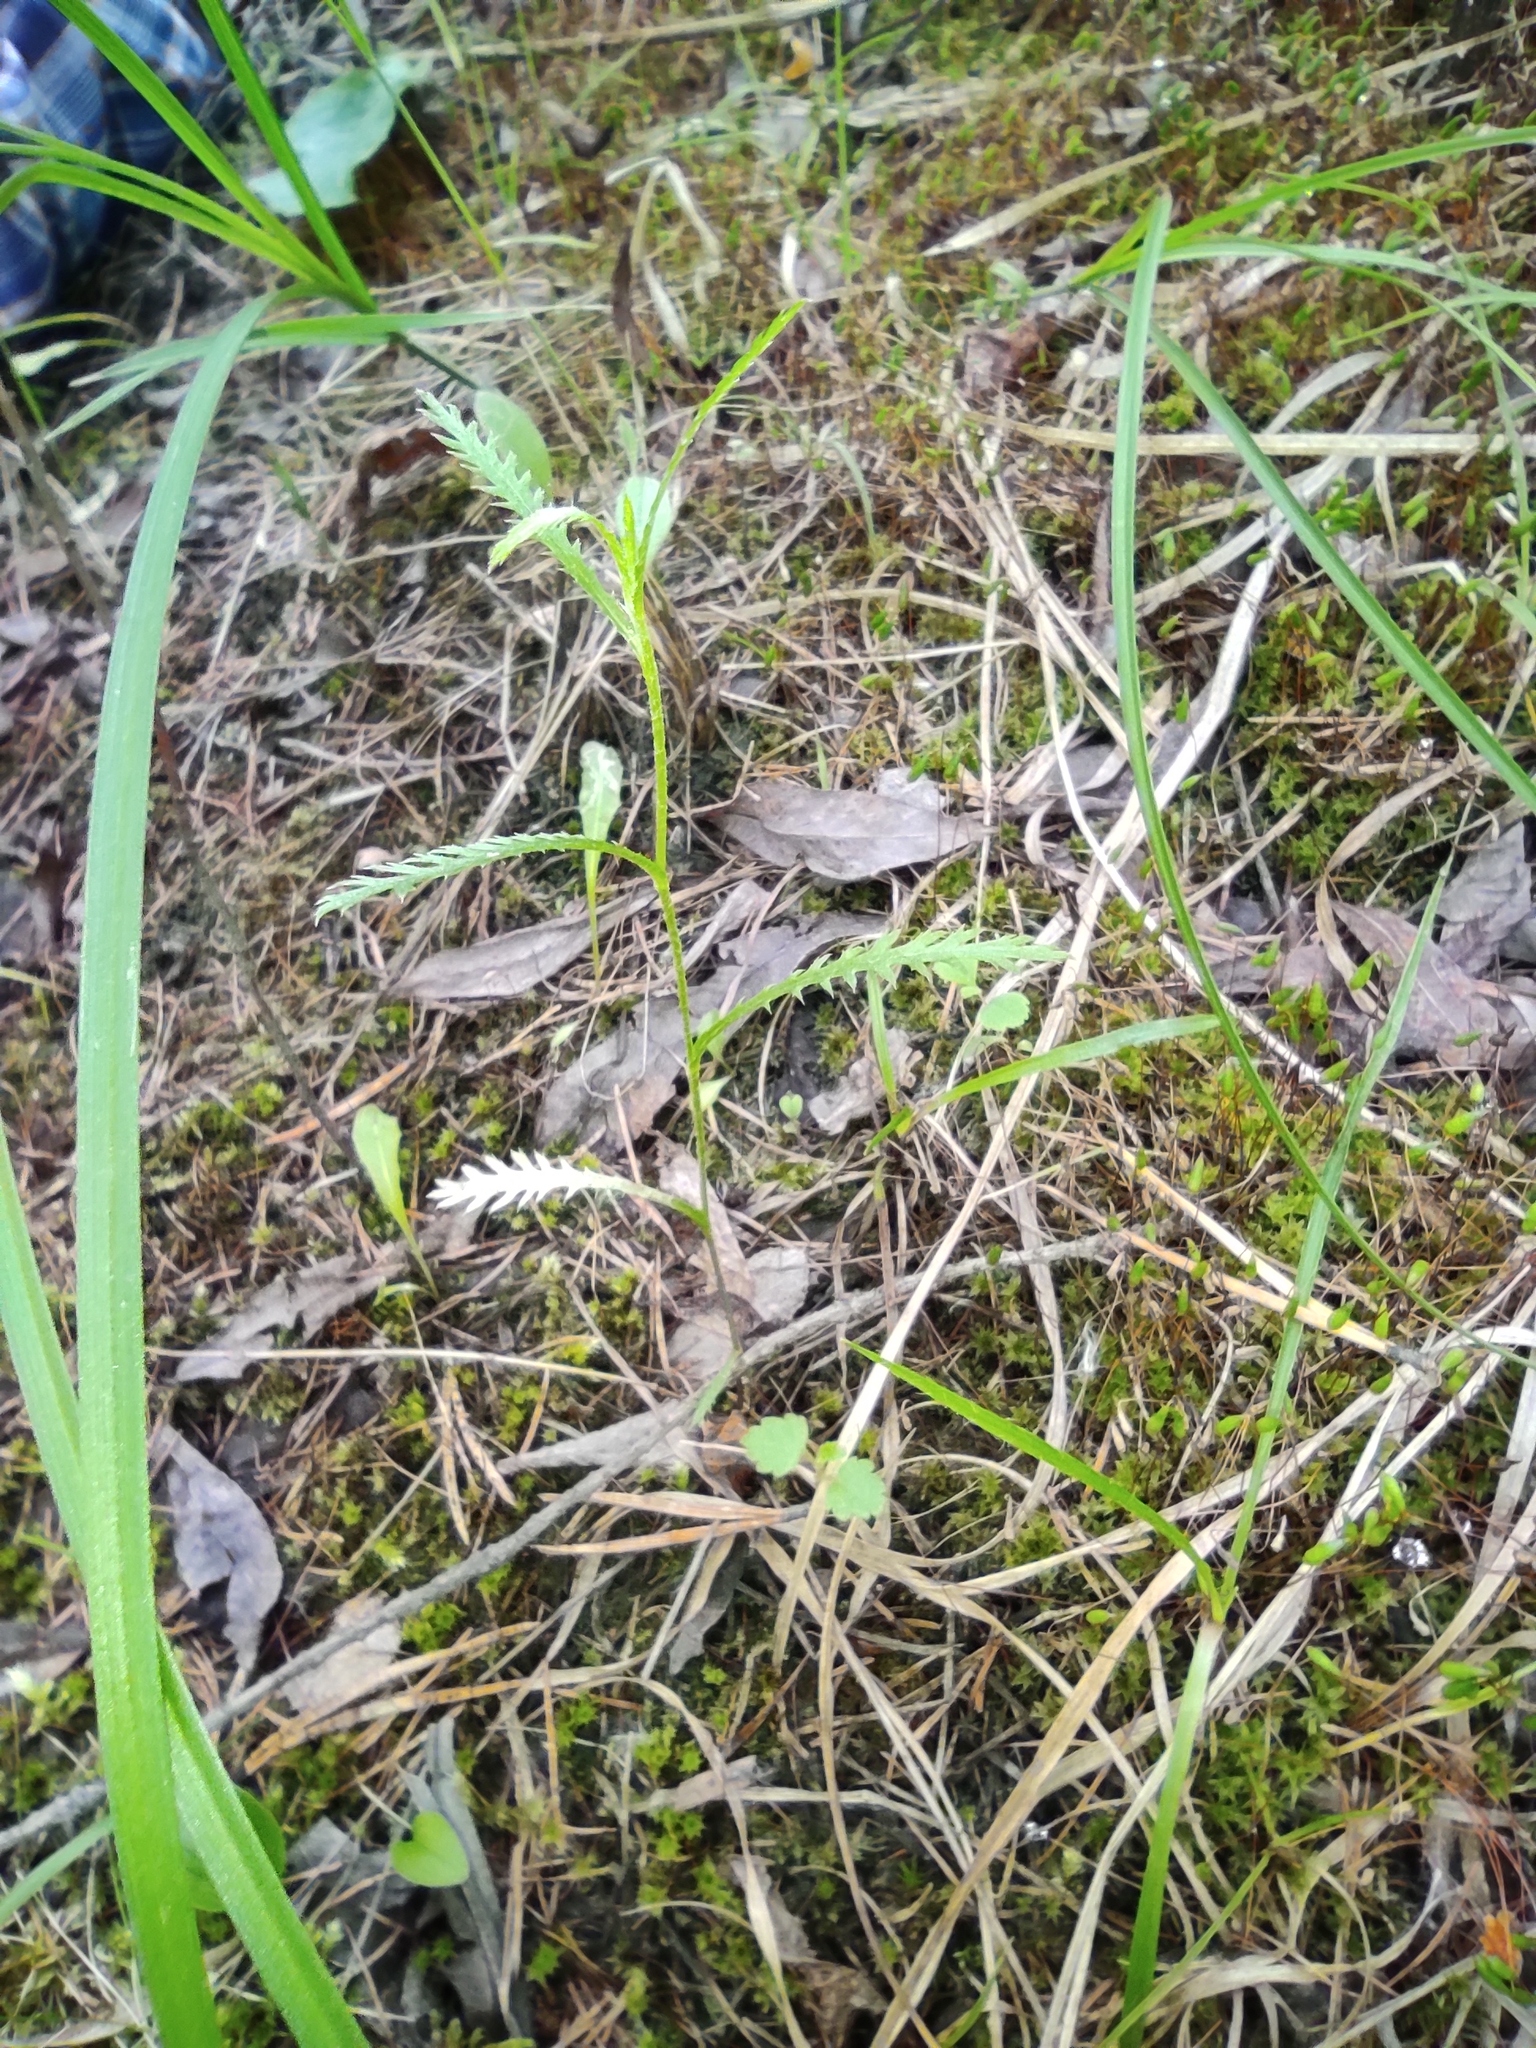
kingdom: Plantae
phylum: Tracheophyta
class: Magnoliopsida
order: Asterales
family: Asteraceae
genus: Achillea
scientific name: Achillea alpina
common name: Siberian yarrow
